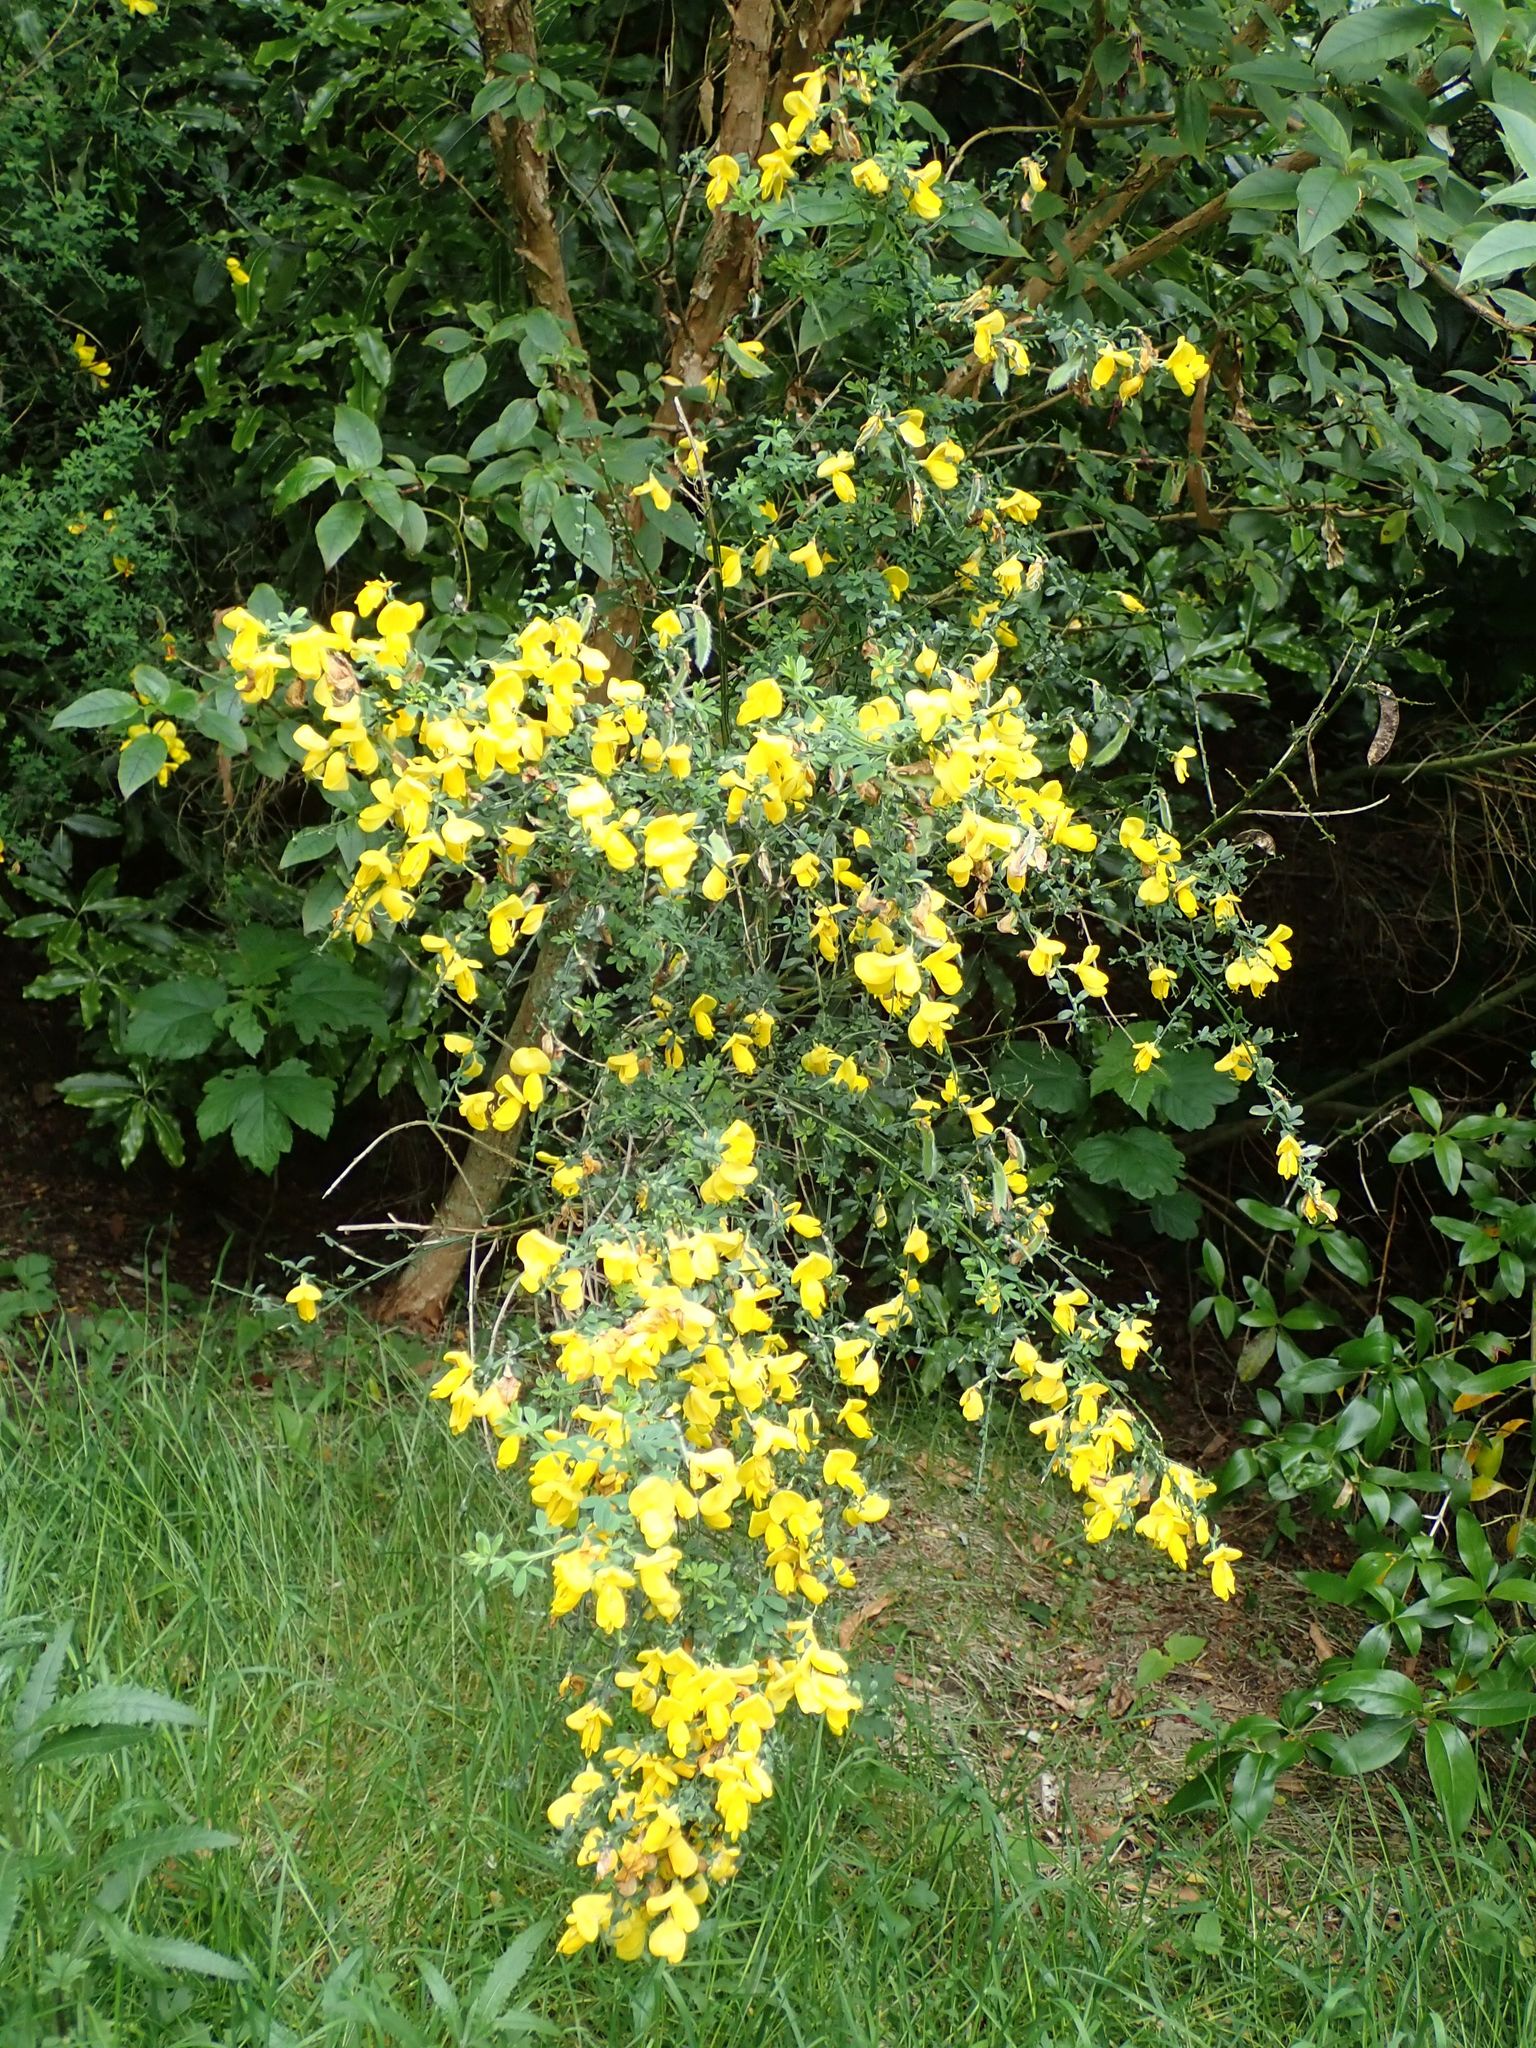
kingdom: Plantae
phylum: Tracheophyta
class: Magnoliopsida
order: Fabales
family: Fabaceae
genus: Cytisus
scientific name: Cytisus scoparius
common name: Scotch broom
